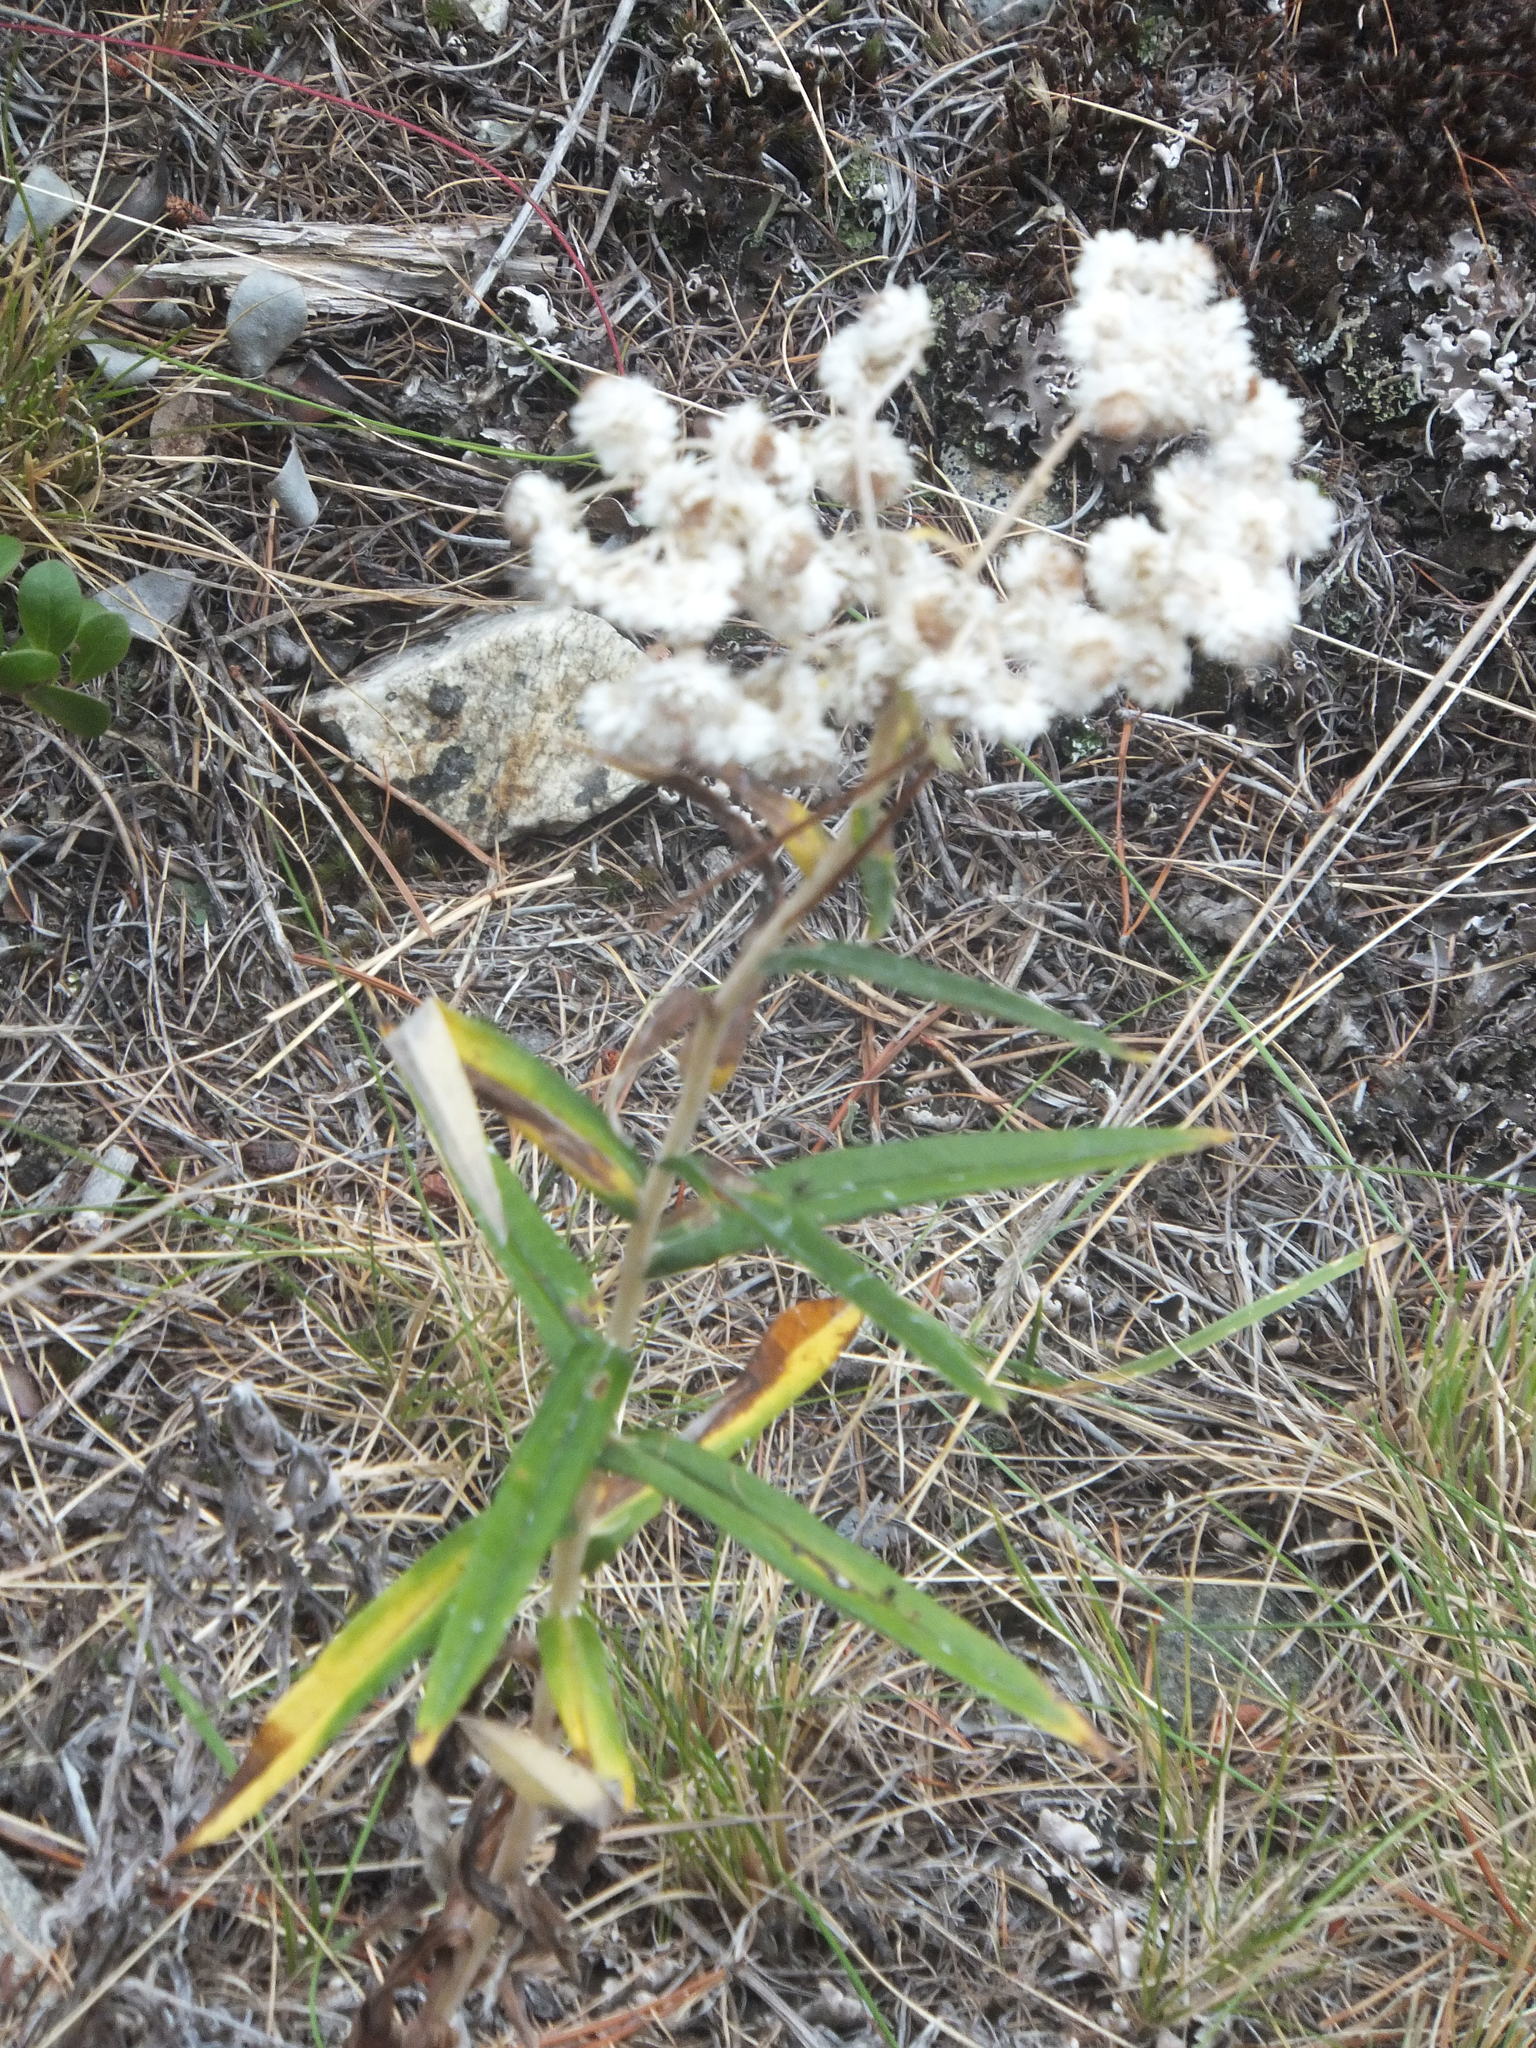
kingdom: Plantae
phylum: Tracheophyta
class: Magnoliopsida
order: Asterales
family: Asteraceae
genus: Anaphalis
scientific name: Anaphalis margaritacea
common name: Pearly everlasting
